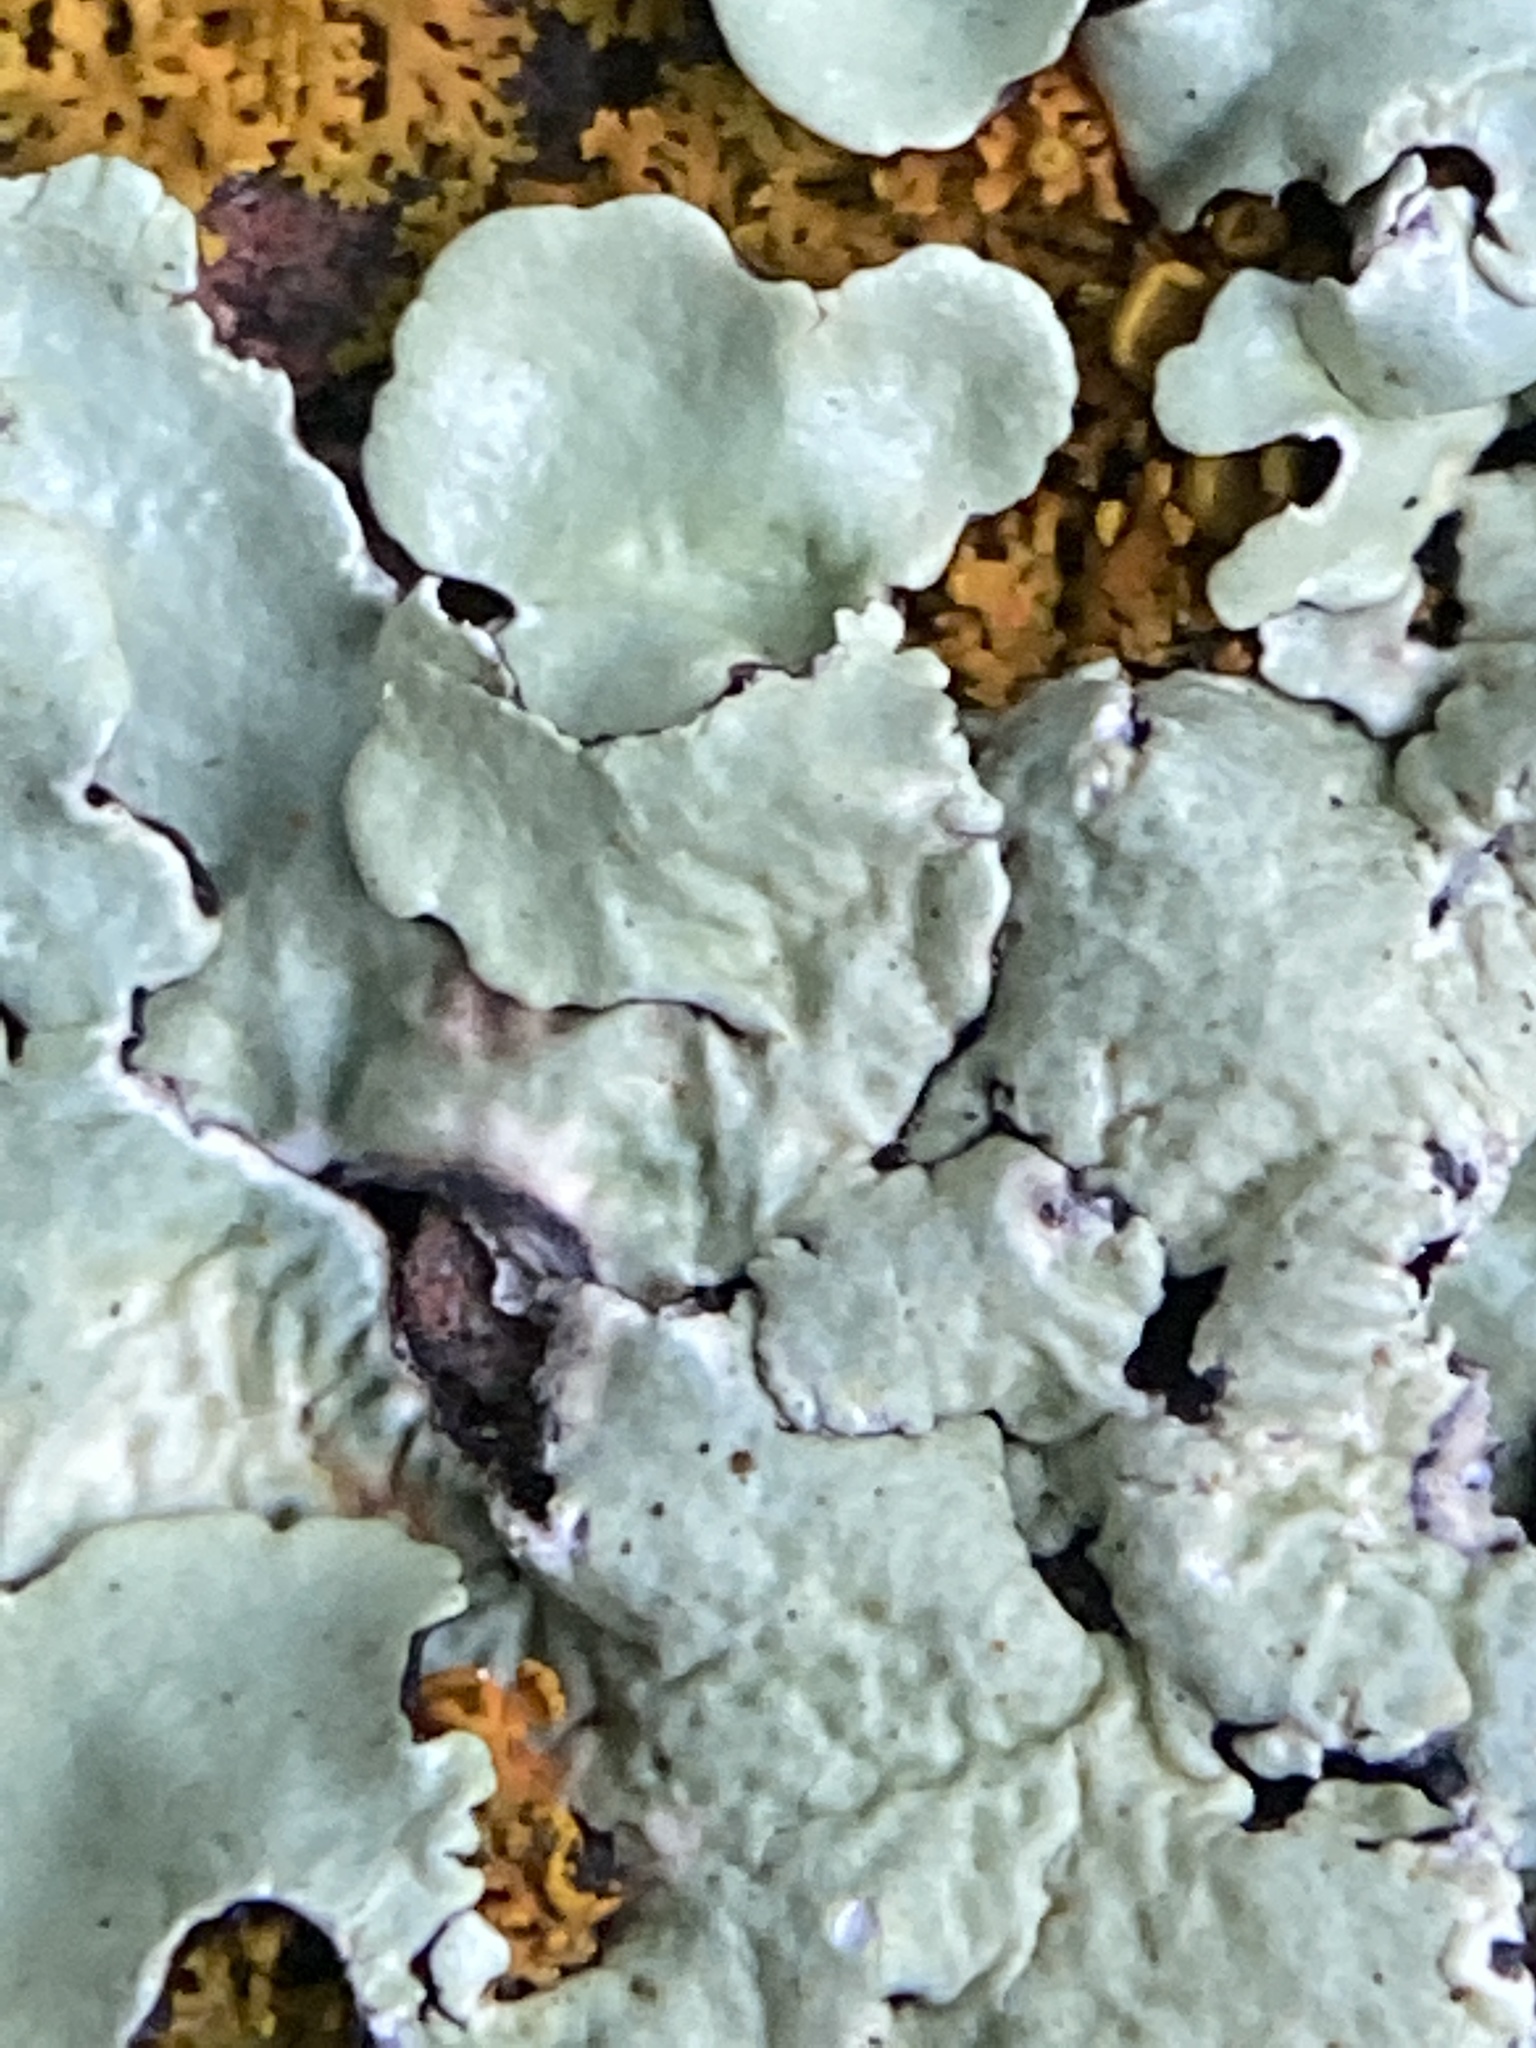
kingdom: Fungi
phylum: Ascomycota
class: Lecanoromycetes
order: Lecanorales
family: Parmeliaceae
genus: Flavoparmelia
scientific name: Flavoparmelia caperata
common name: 40-mile per hour lichen
